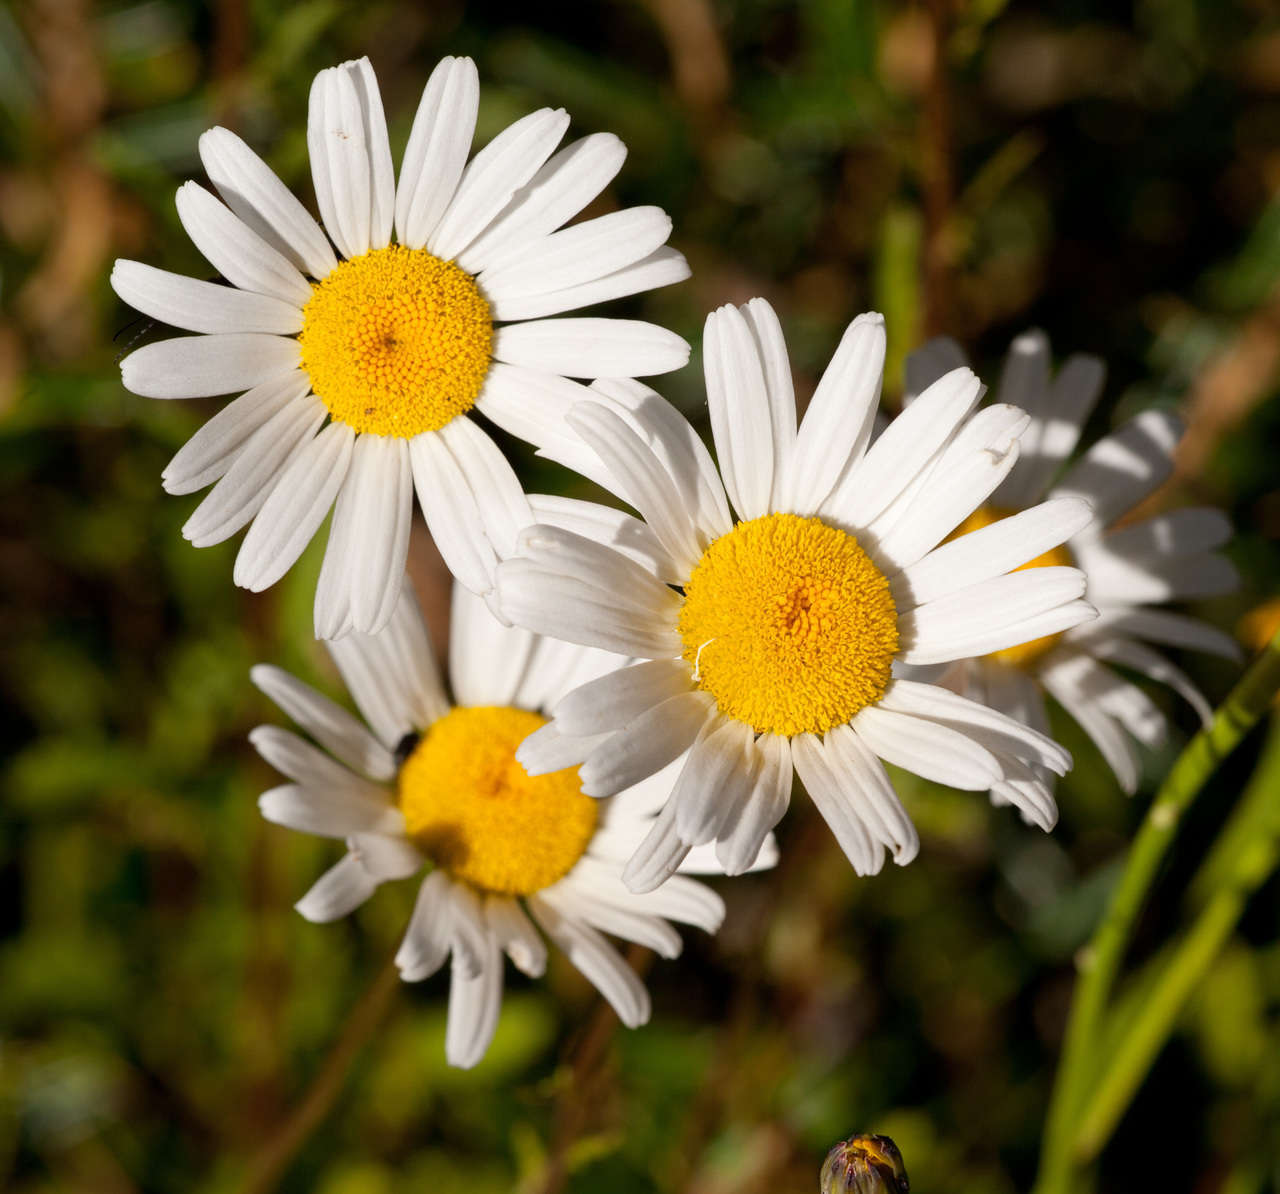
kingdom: Plantae
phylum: Tracheophyta
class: Magnoliopsida
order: Asterales
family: Asteraceae
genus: Leucanthemum
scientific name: Leucanthemum vulgare
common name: Oxeye daisy
